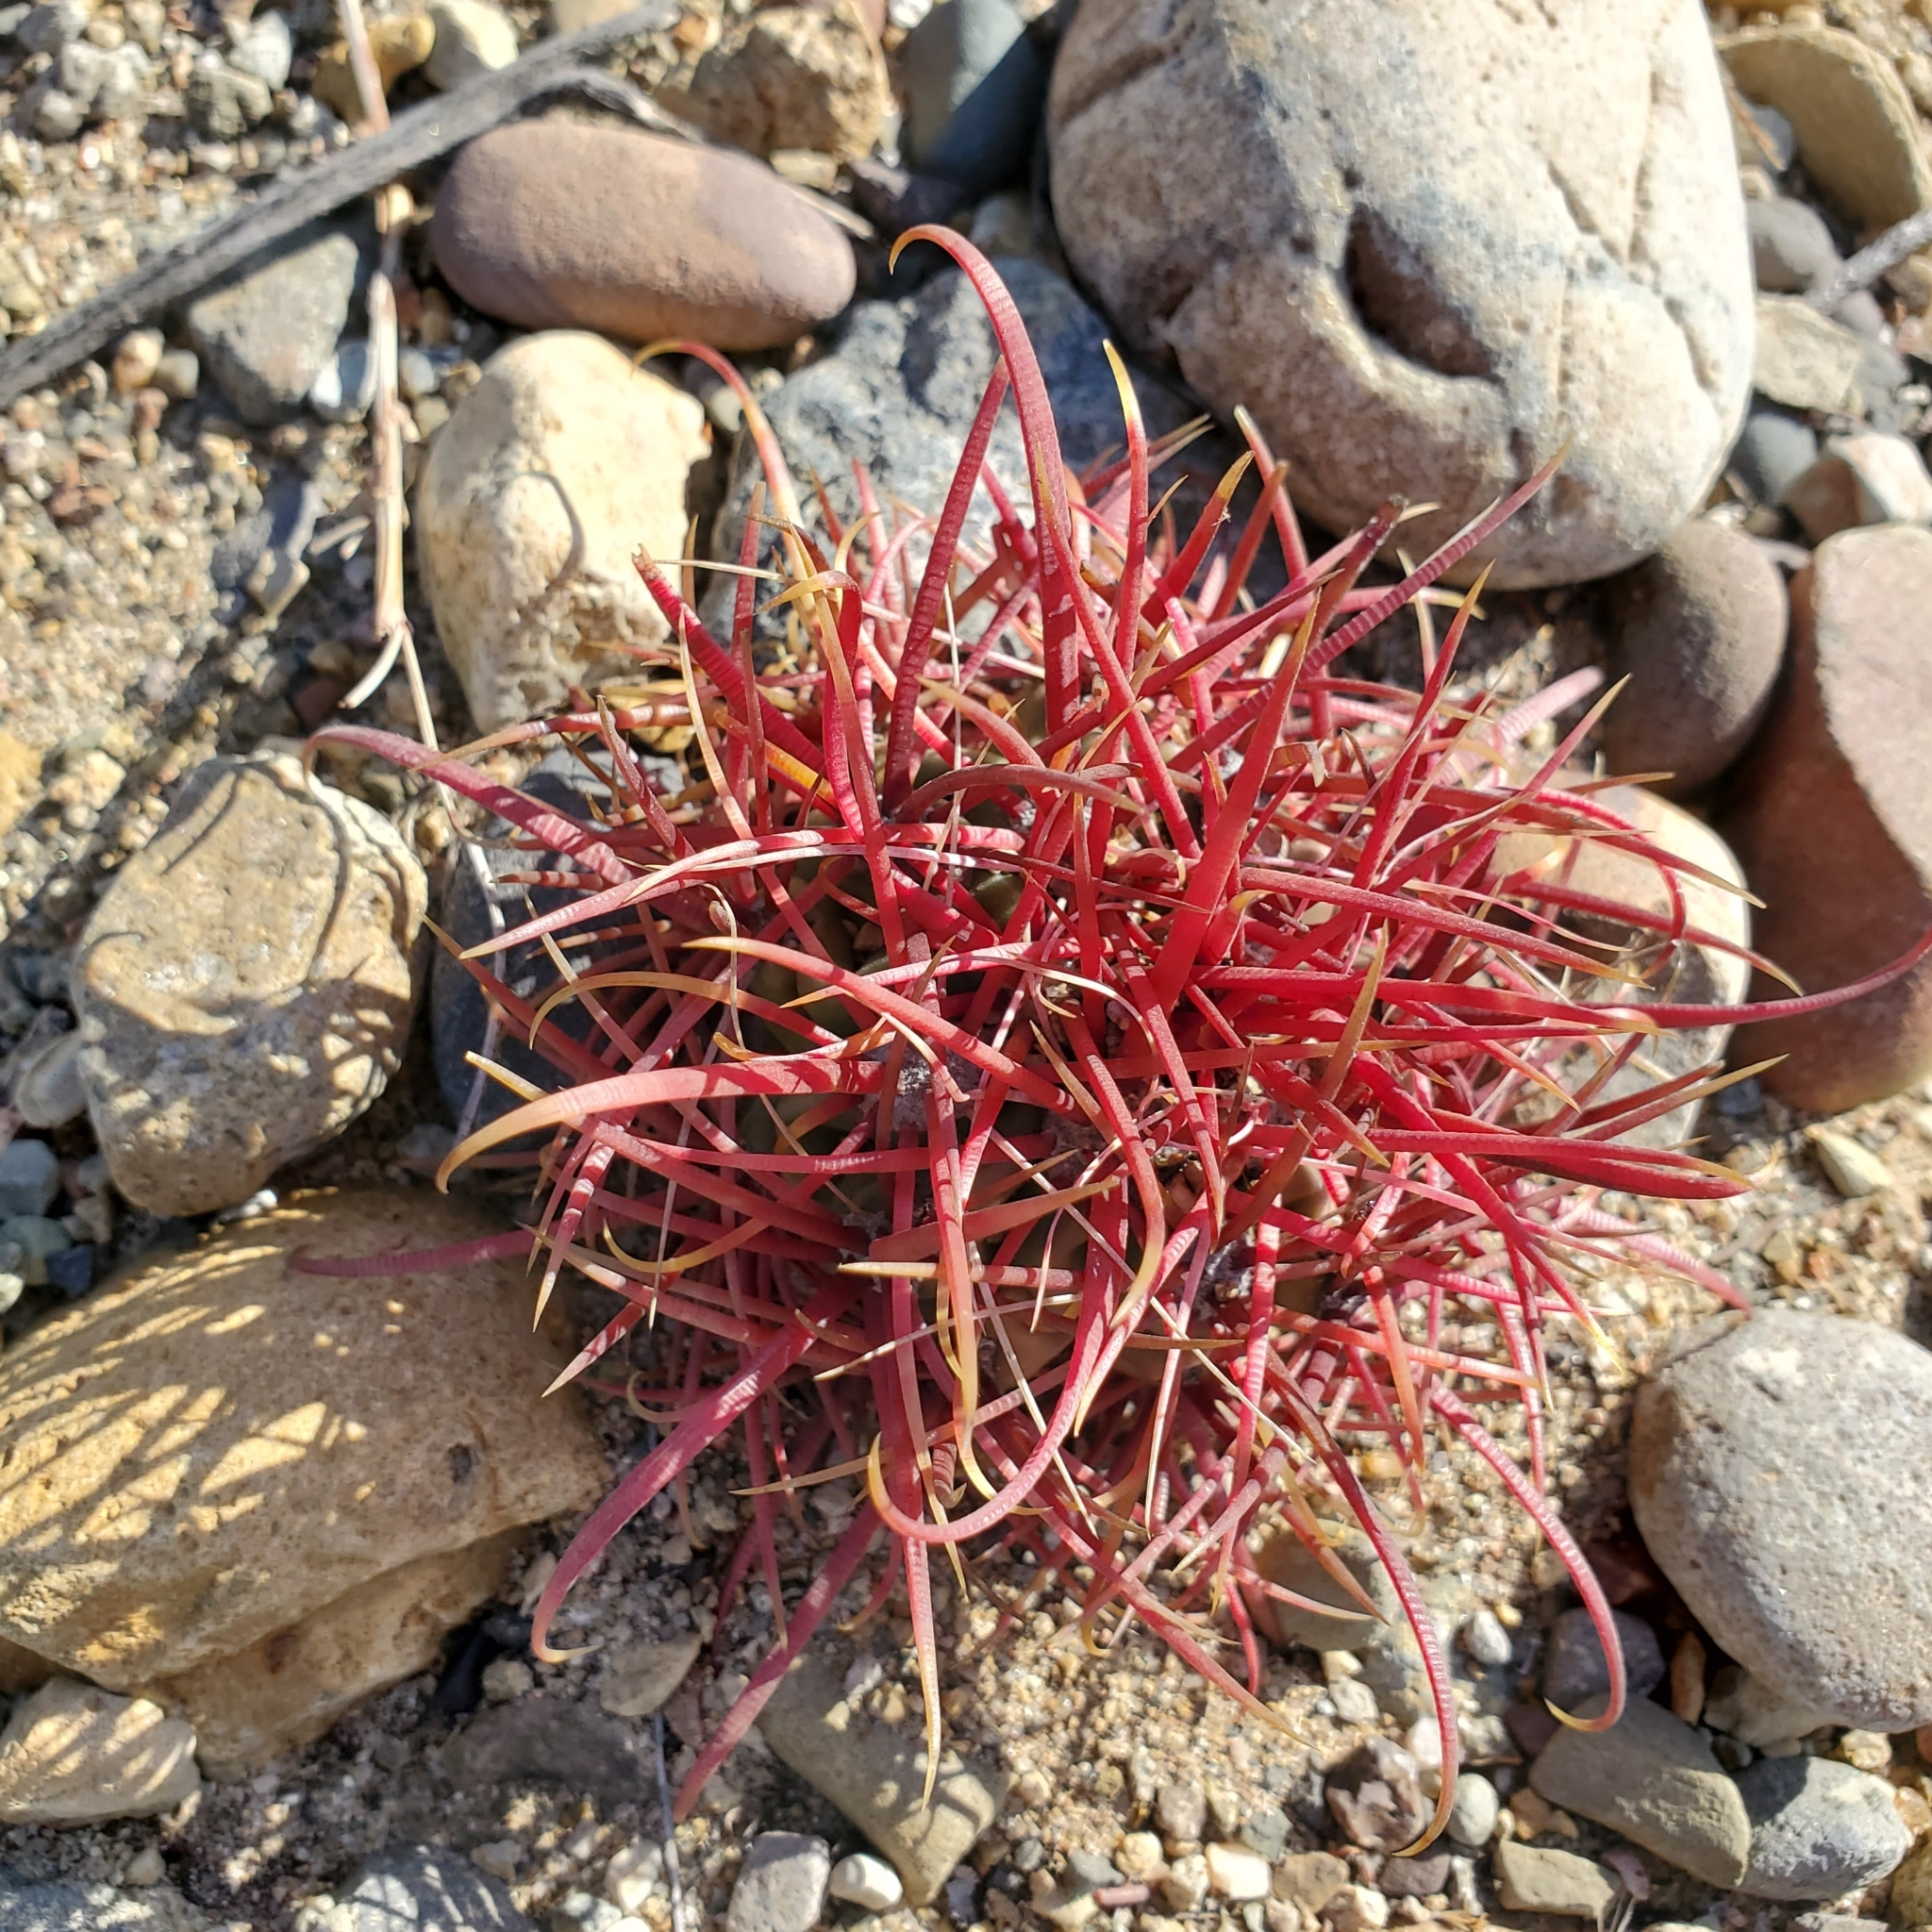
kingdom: Plantae
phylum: Tracheophyta
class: Magnoliopsida
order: Caryophyllales
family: Cactaceae
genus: Ferocactus
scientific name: Ferocactus gracilis
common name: Fire barrel cactus
